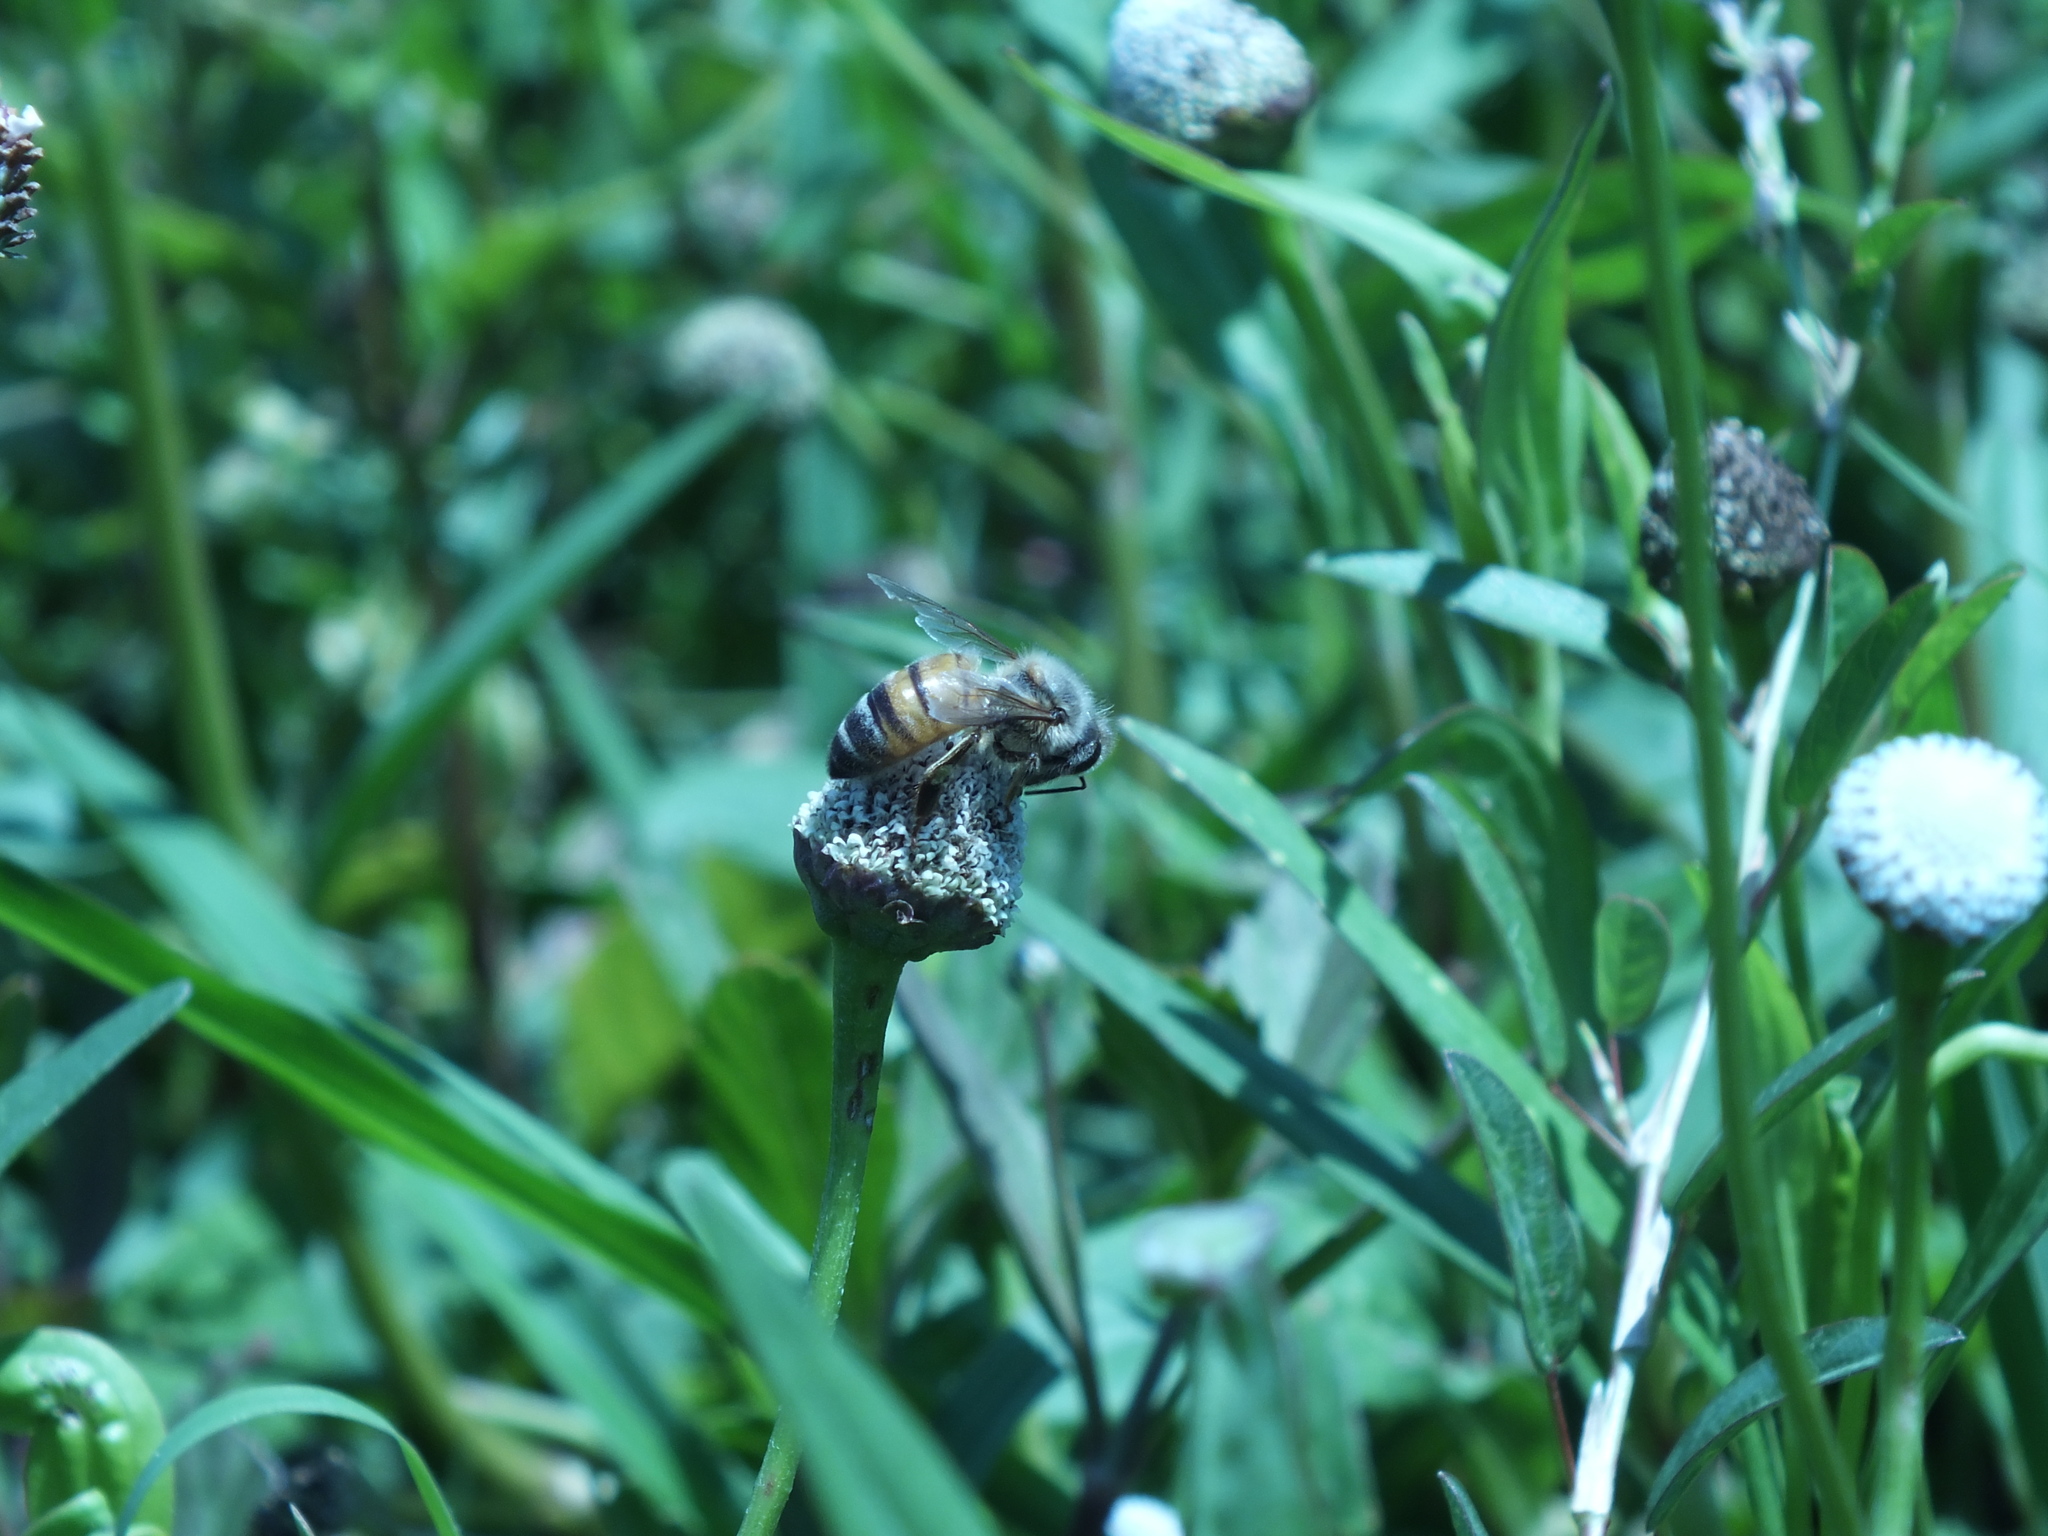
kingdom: Animalia
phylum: Arthropoda
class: Insecta
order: Hymenoptera
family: Apidae
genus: Apis
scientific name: Apis mellifera
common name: Honey bee
